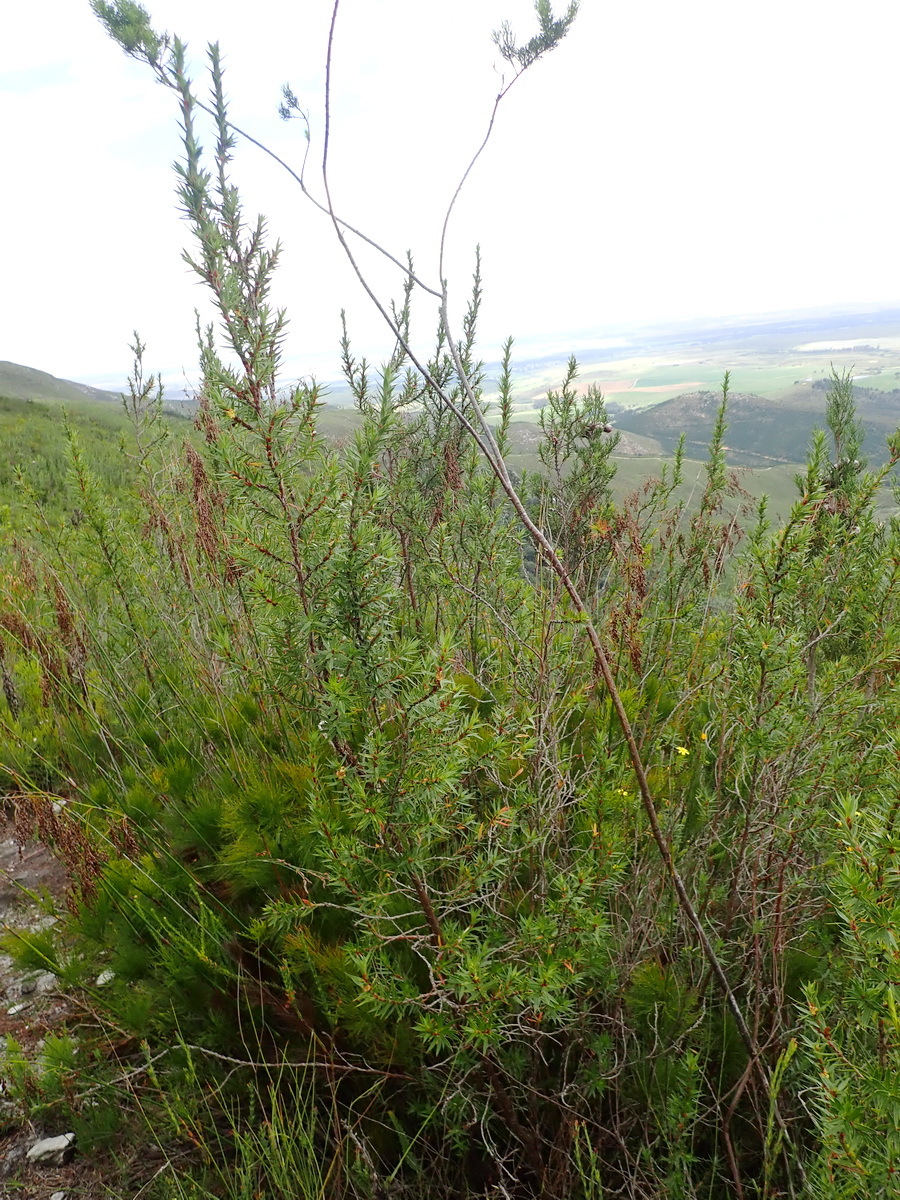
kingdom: Plantae
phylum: Tracheophyta
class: Magnoliopsida
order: Rosales
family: Rosaceae
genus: Cliffortia
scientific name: Cliffortia lanceolata
